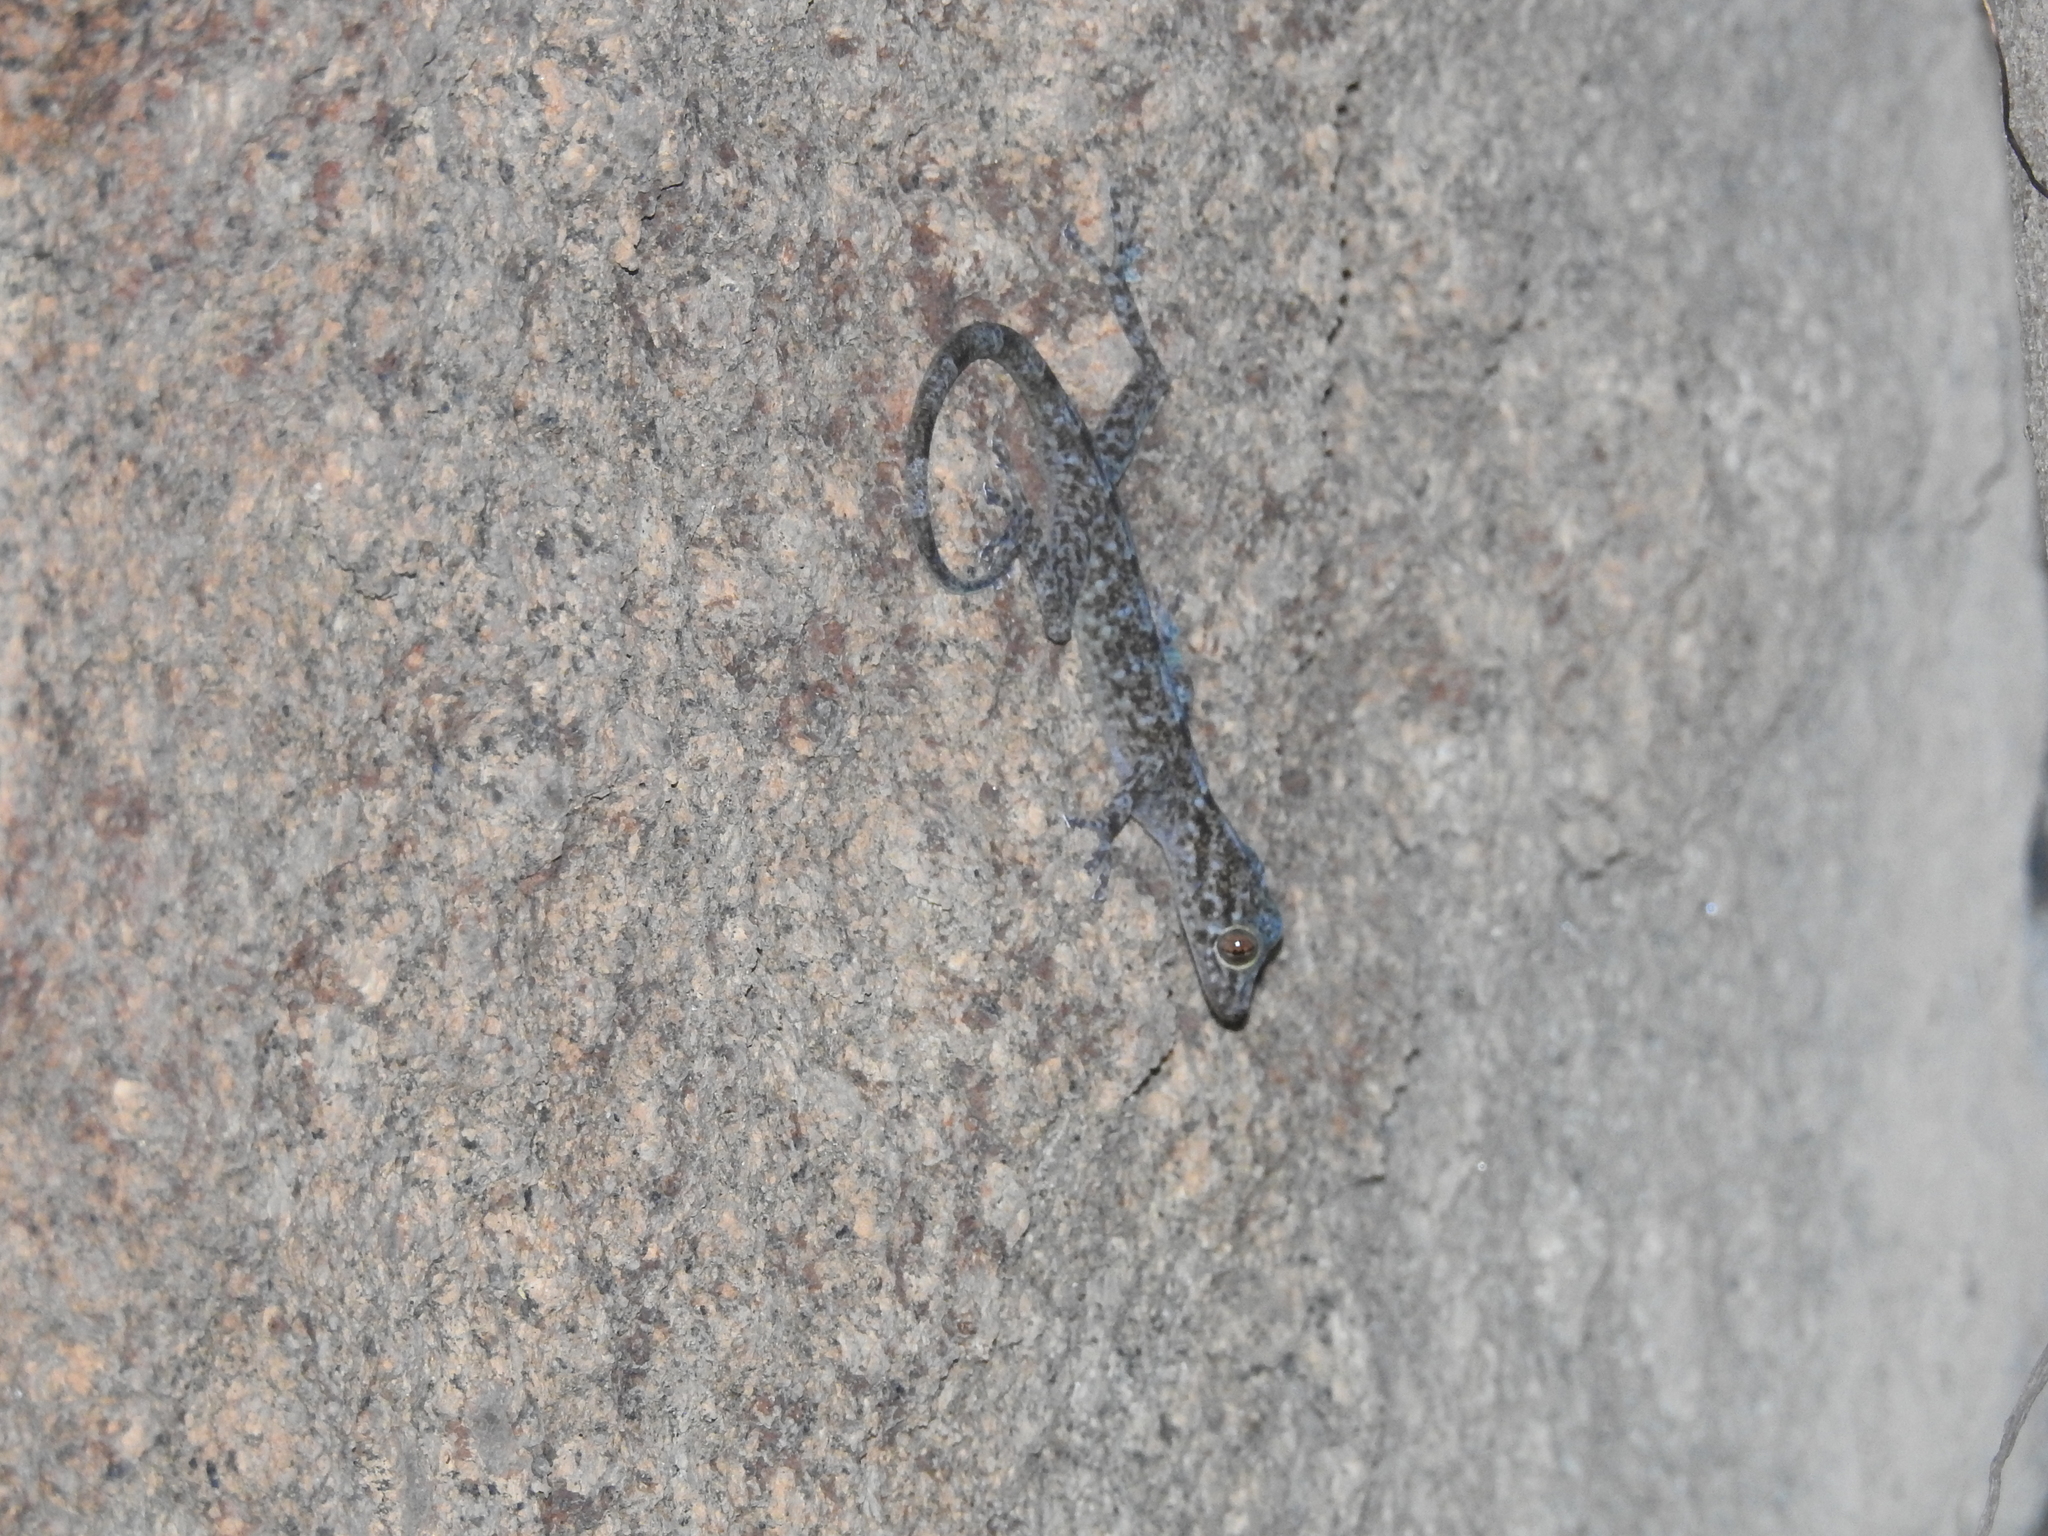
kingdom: Animalia
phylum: Chordata
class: Squamata
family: Gekkonidae
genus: Calodactylodes
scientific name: Calodactylodes aureus
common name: Indian golden gecko
